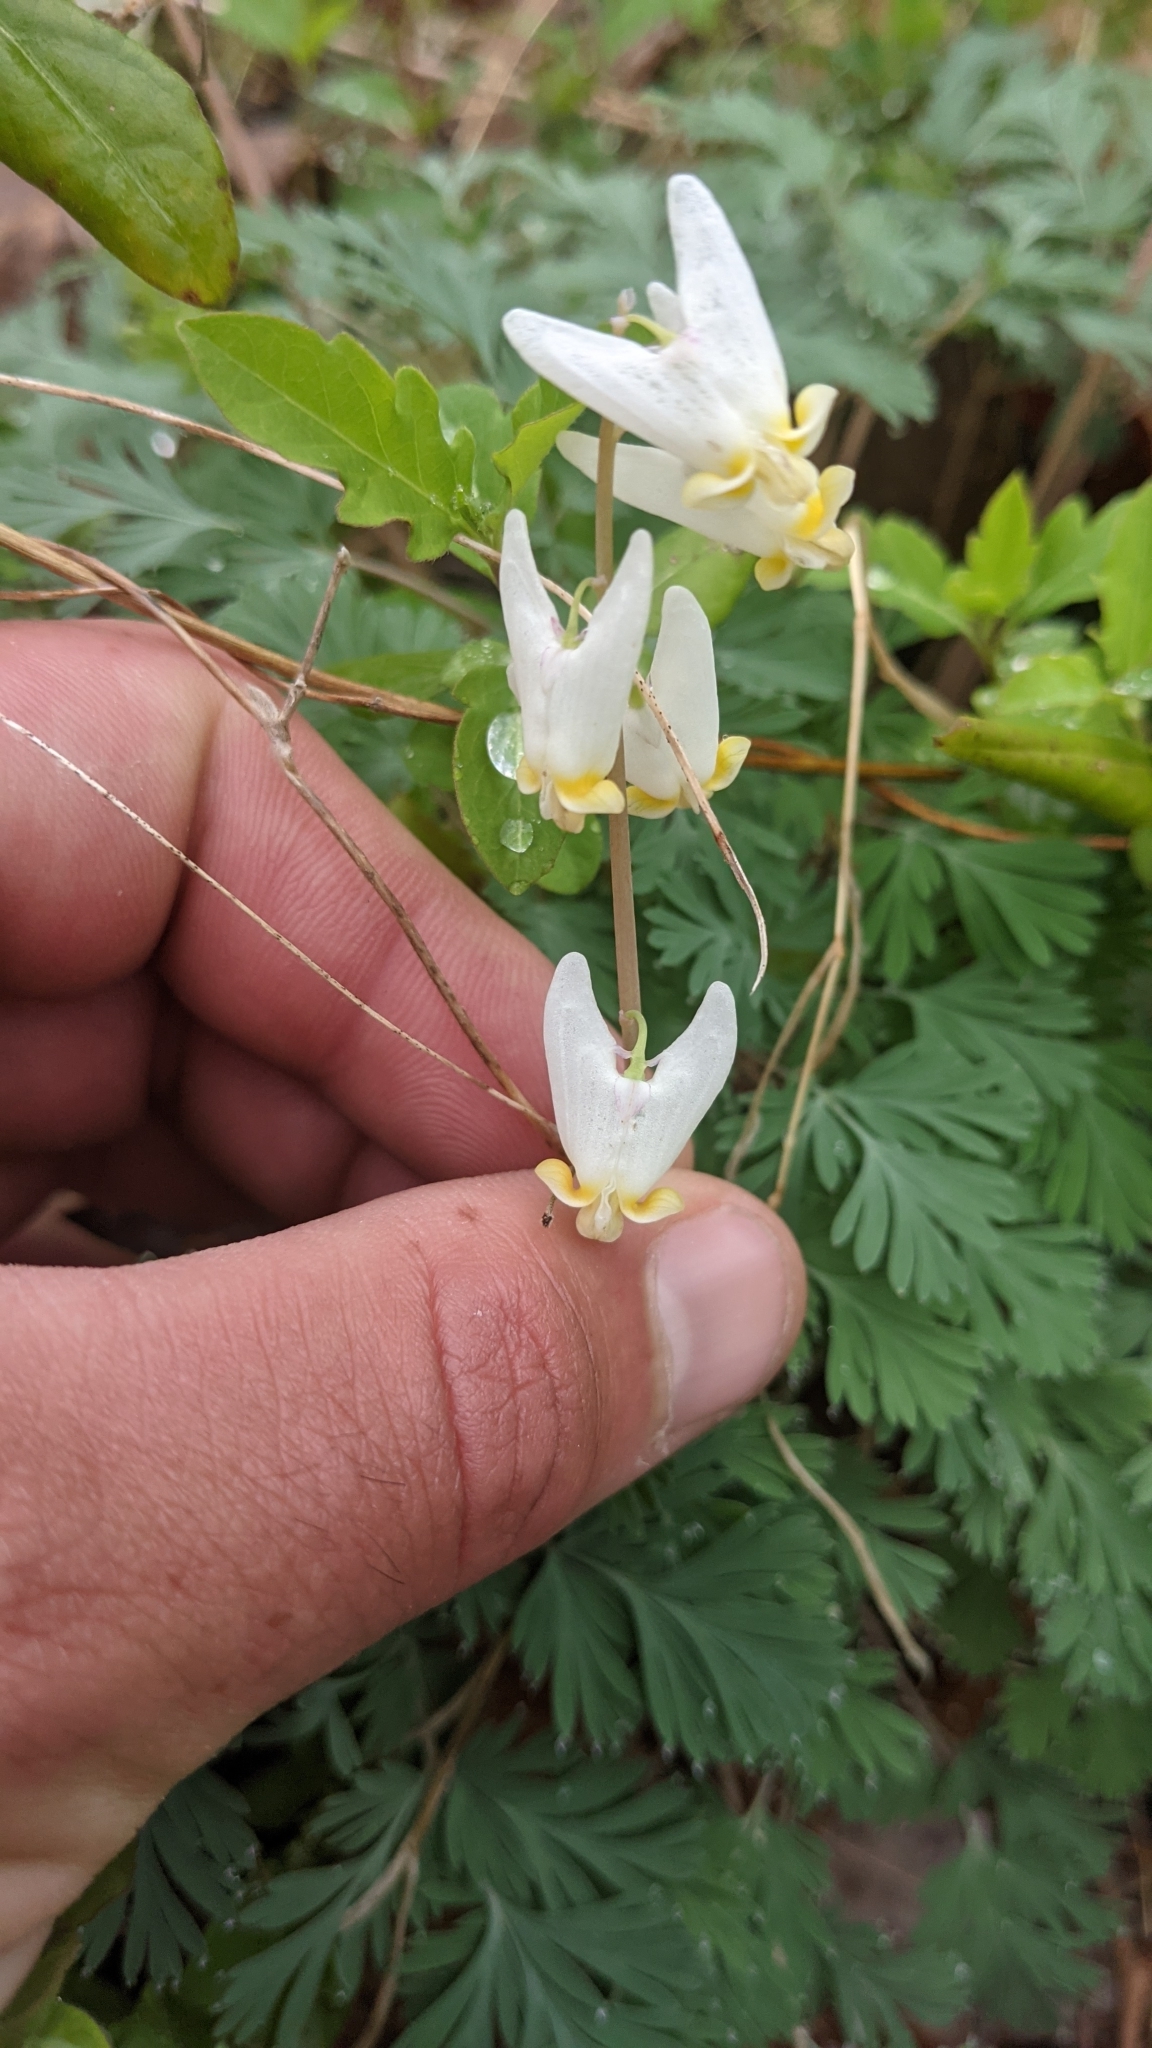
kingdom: Plantae
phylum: Tracheophyta
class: Magnoliopsida
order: Ranunculales
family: Papaveraceae
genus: Dicentra
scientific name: Dicentra cucullaria
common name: Dutchman's breeches
